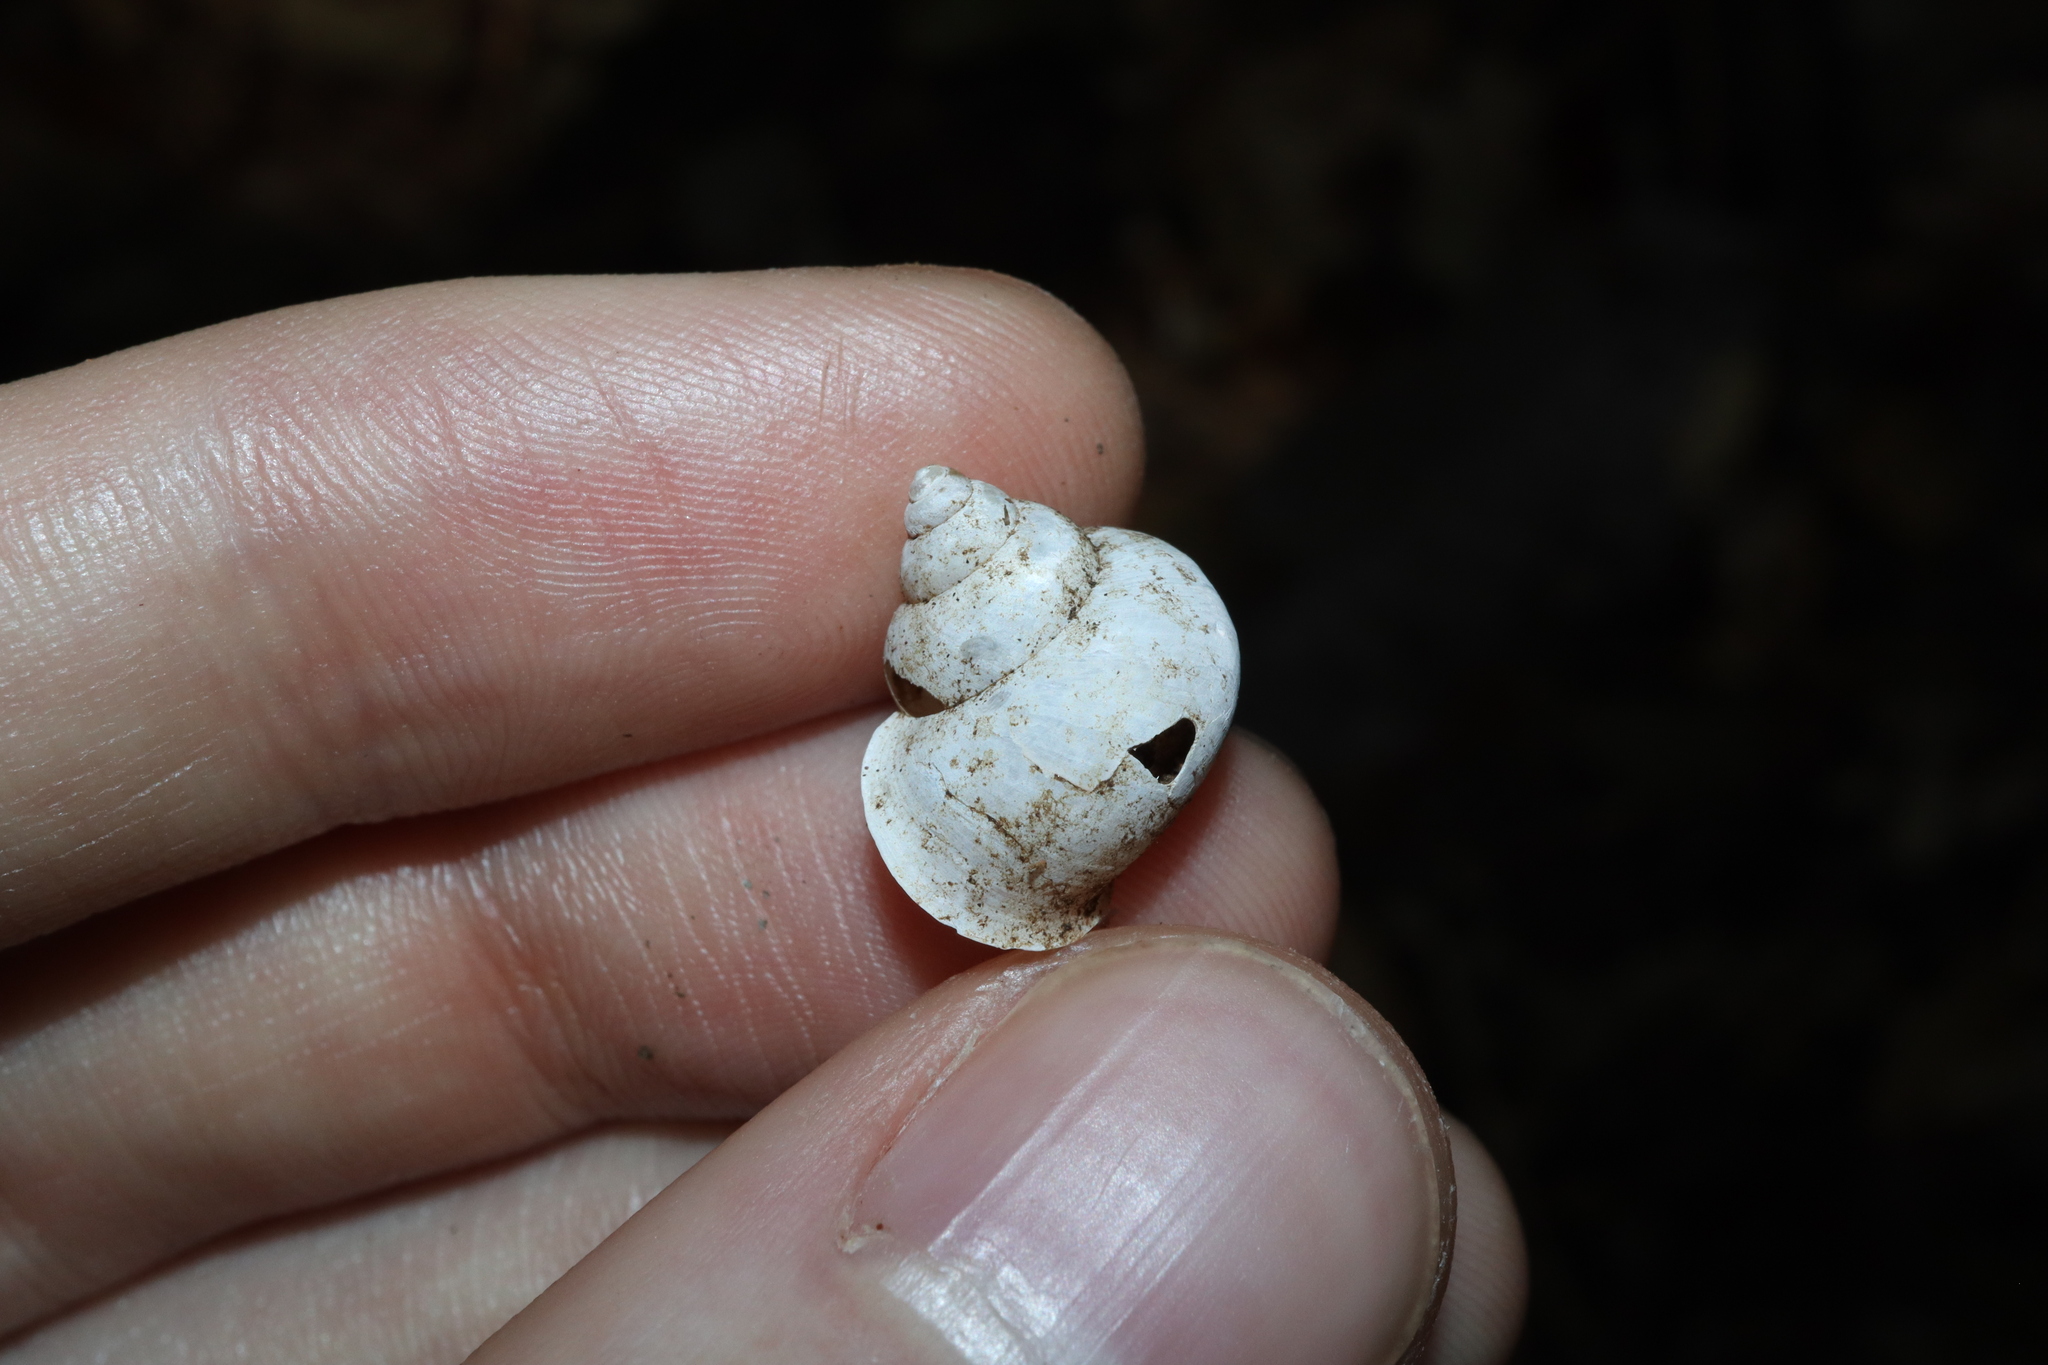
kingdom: Animalia
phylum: Mollusca
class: Gastropoda
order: Architaenioglossa
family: Cyclophoridae
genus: Leptopoma
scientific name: Leptopoma perlucidum
